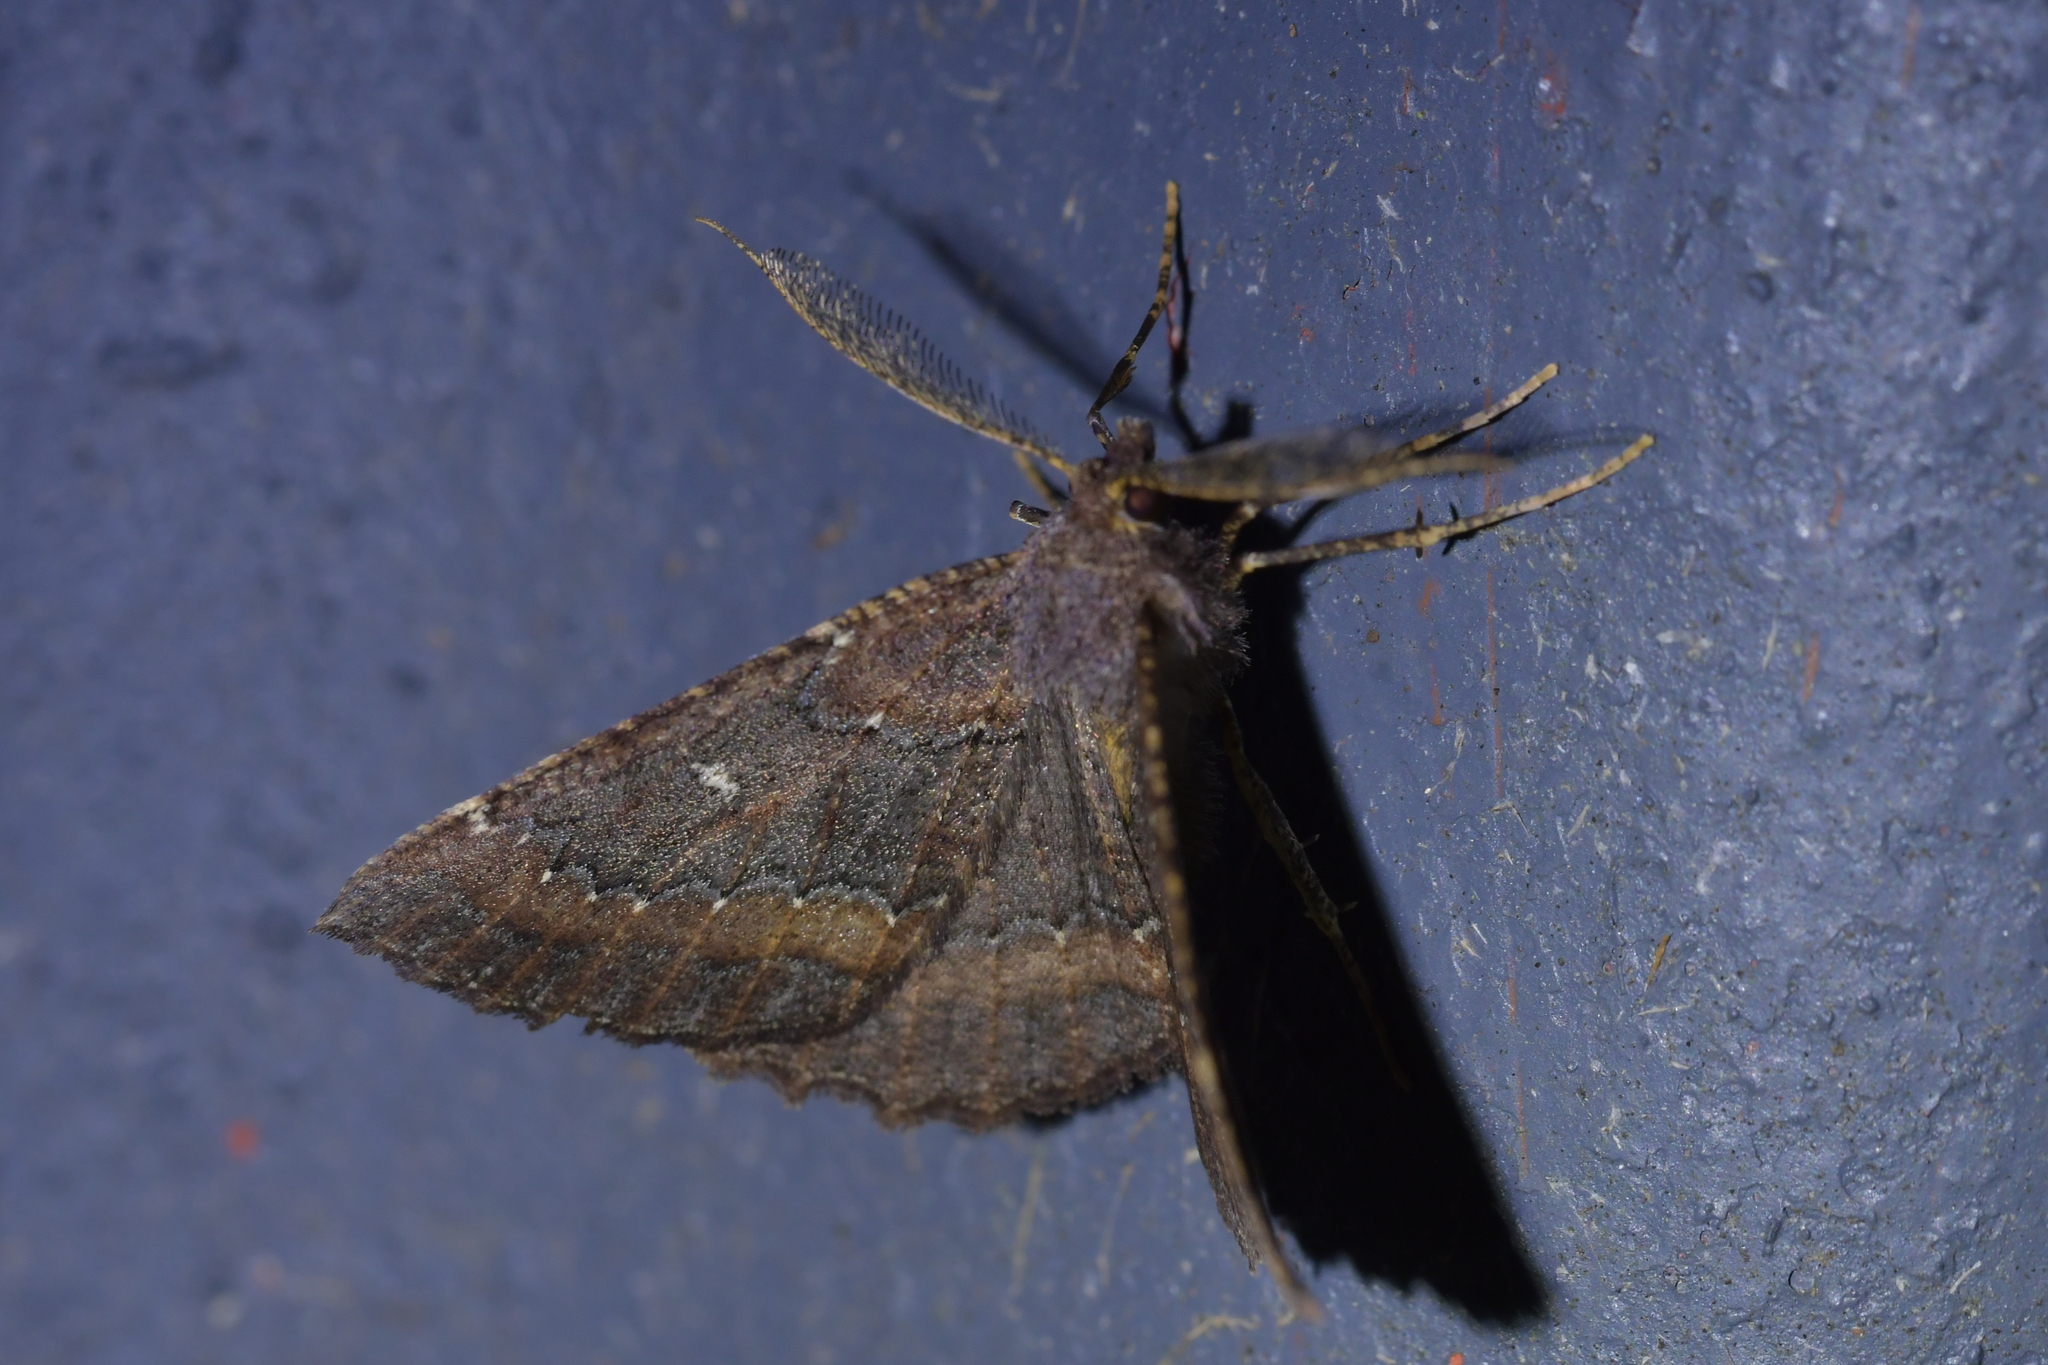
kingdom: Animalia
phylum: Arthropoda
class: Insecta
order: Lepidoptera
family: Geometridae
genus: Cleora
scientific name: Cleora scriptaria
